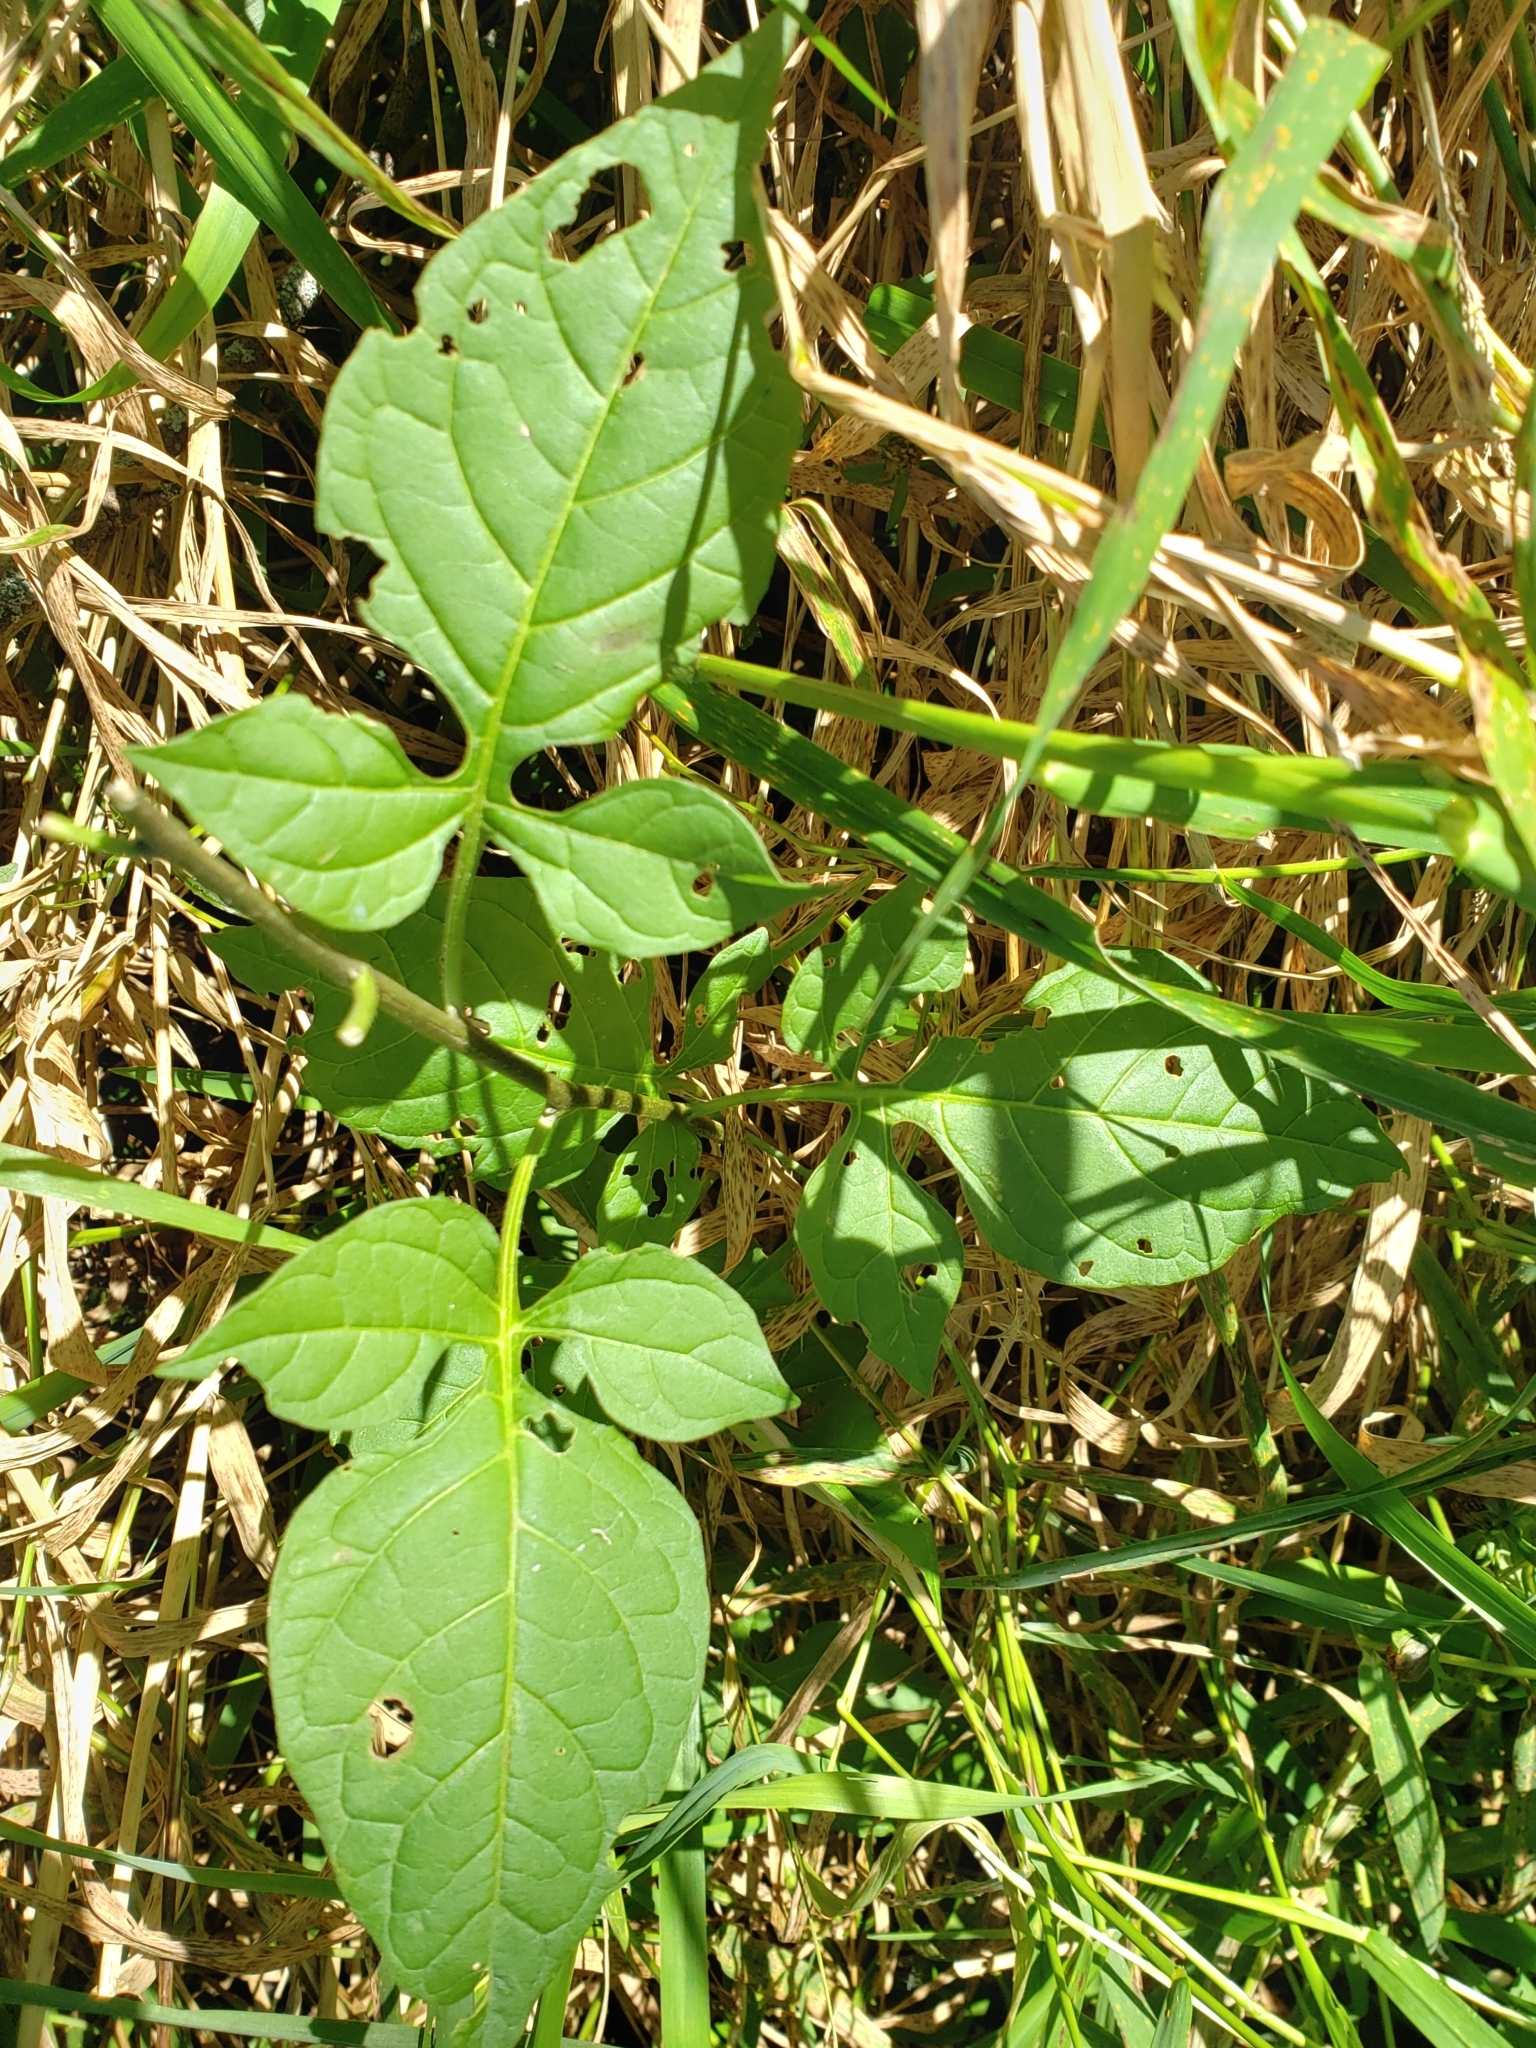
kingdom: Plantae
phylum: Tracheophyta
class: Magnoliopsida
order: Solanales
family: Solanaceae
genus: Solanum
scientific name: Solanum dulcamara
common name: Climbing nightshade
